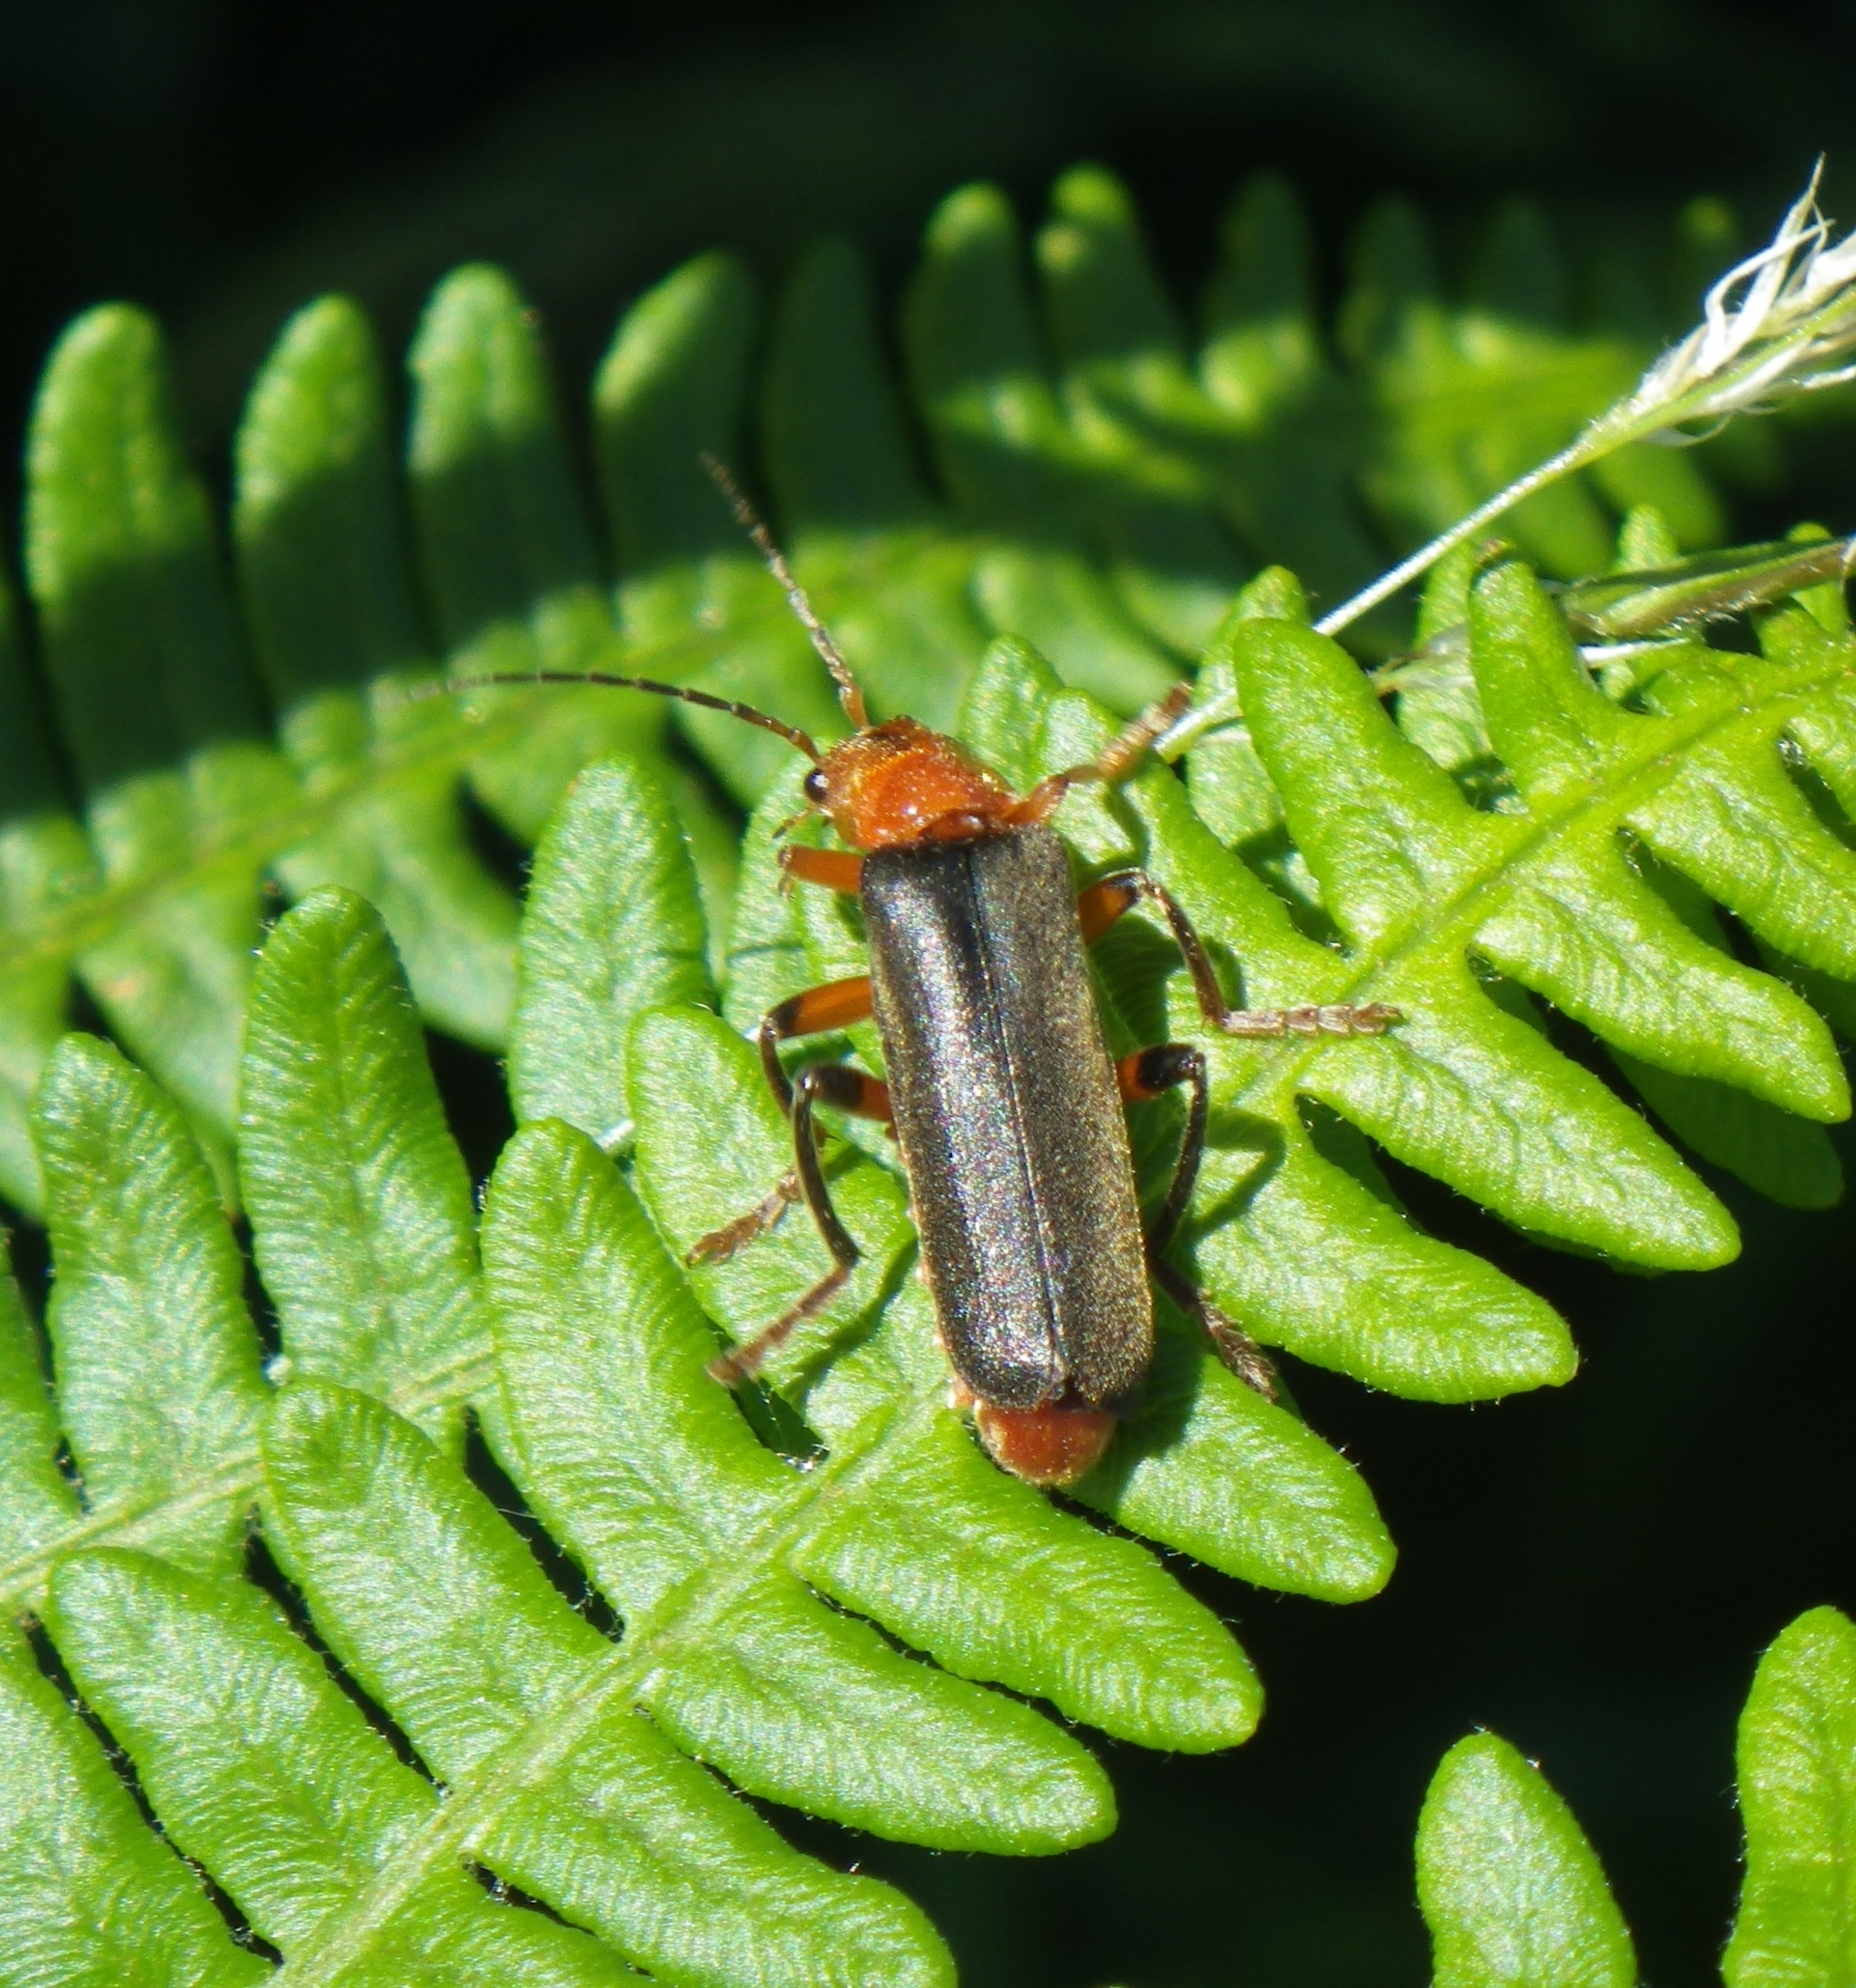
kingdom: Animalia
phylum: Arthropoda
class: Insecta
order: Coleoptera
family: Cantharidae
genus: Cantharis
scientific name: Cantharis livida
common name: Livid soldier beetle
